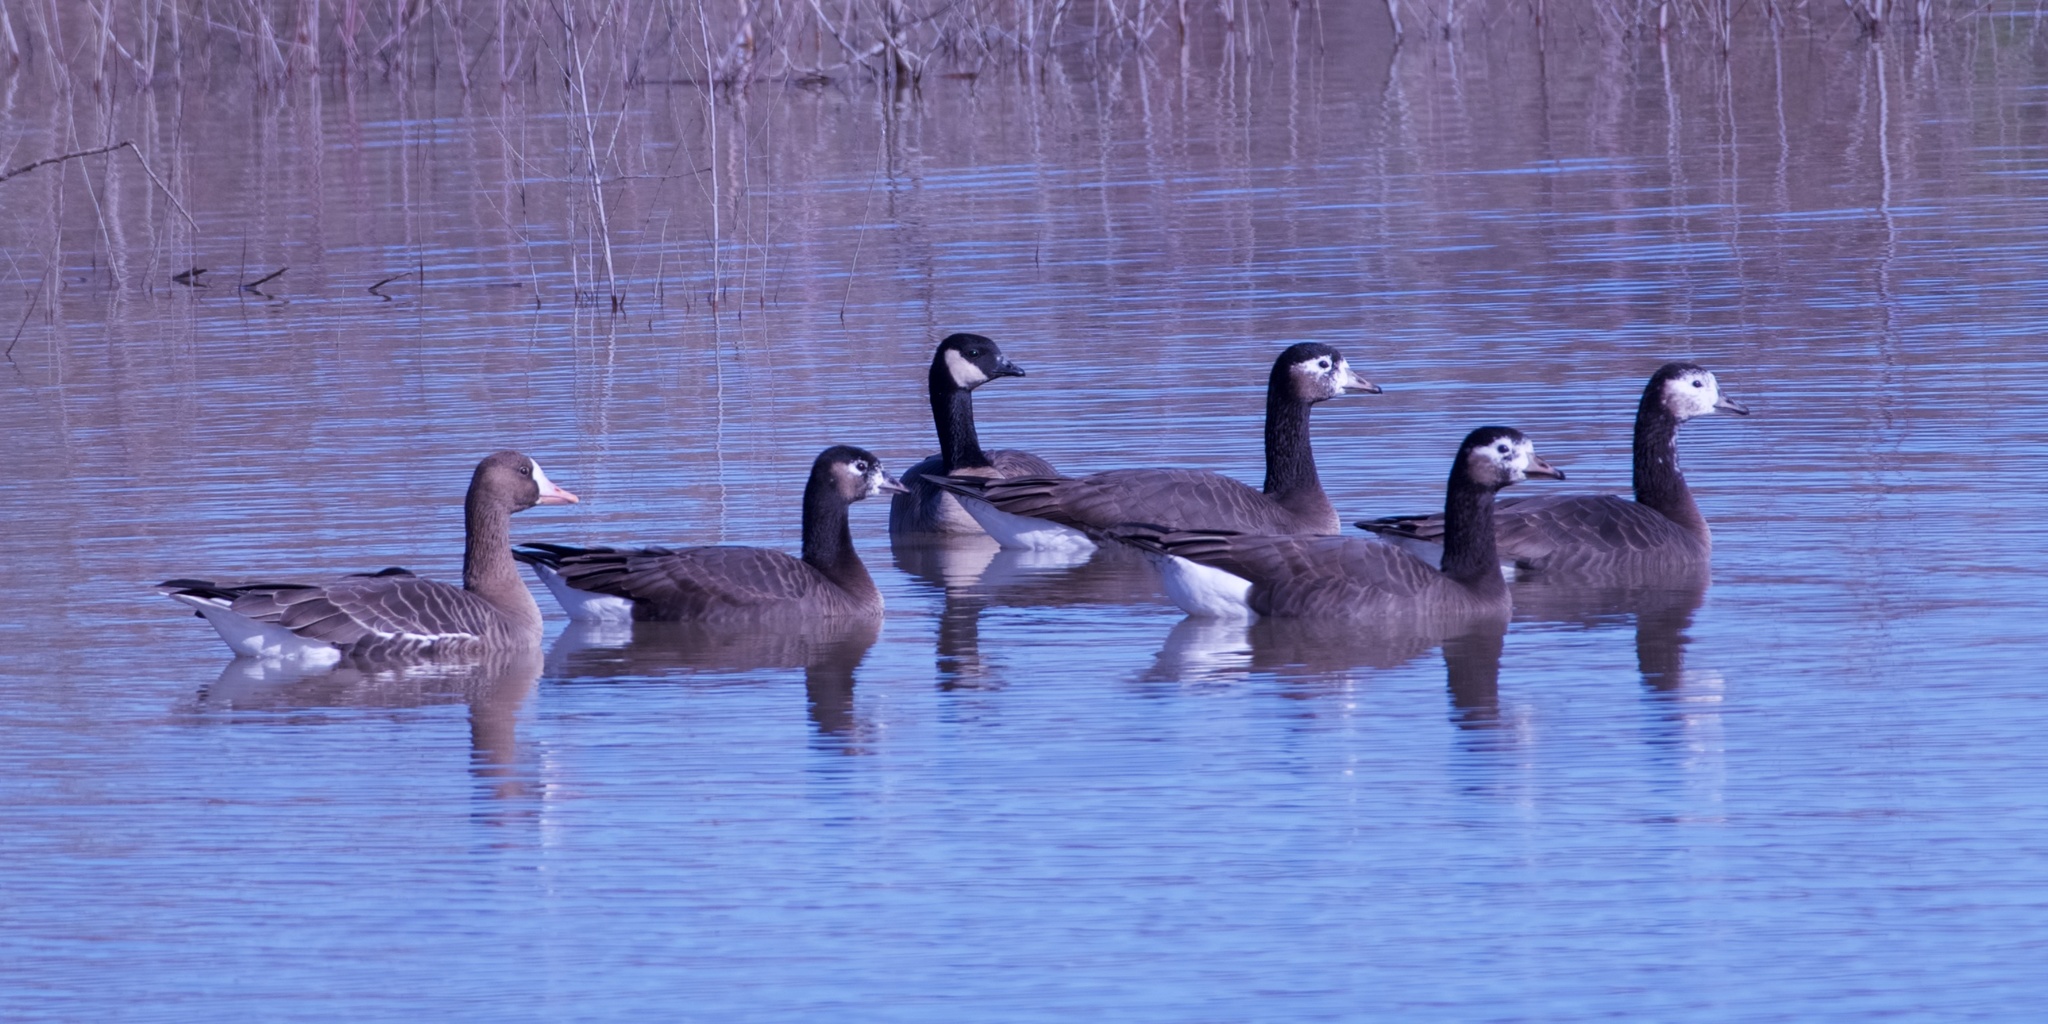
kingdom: Animalia
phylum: Chordata
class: Aves
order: Anseriformes
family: Anatidae
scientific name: Anatidae
